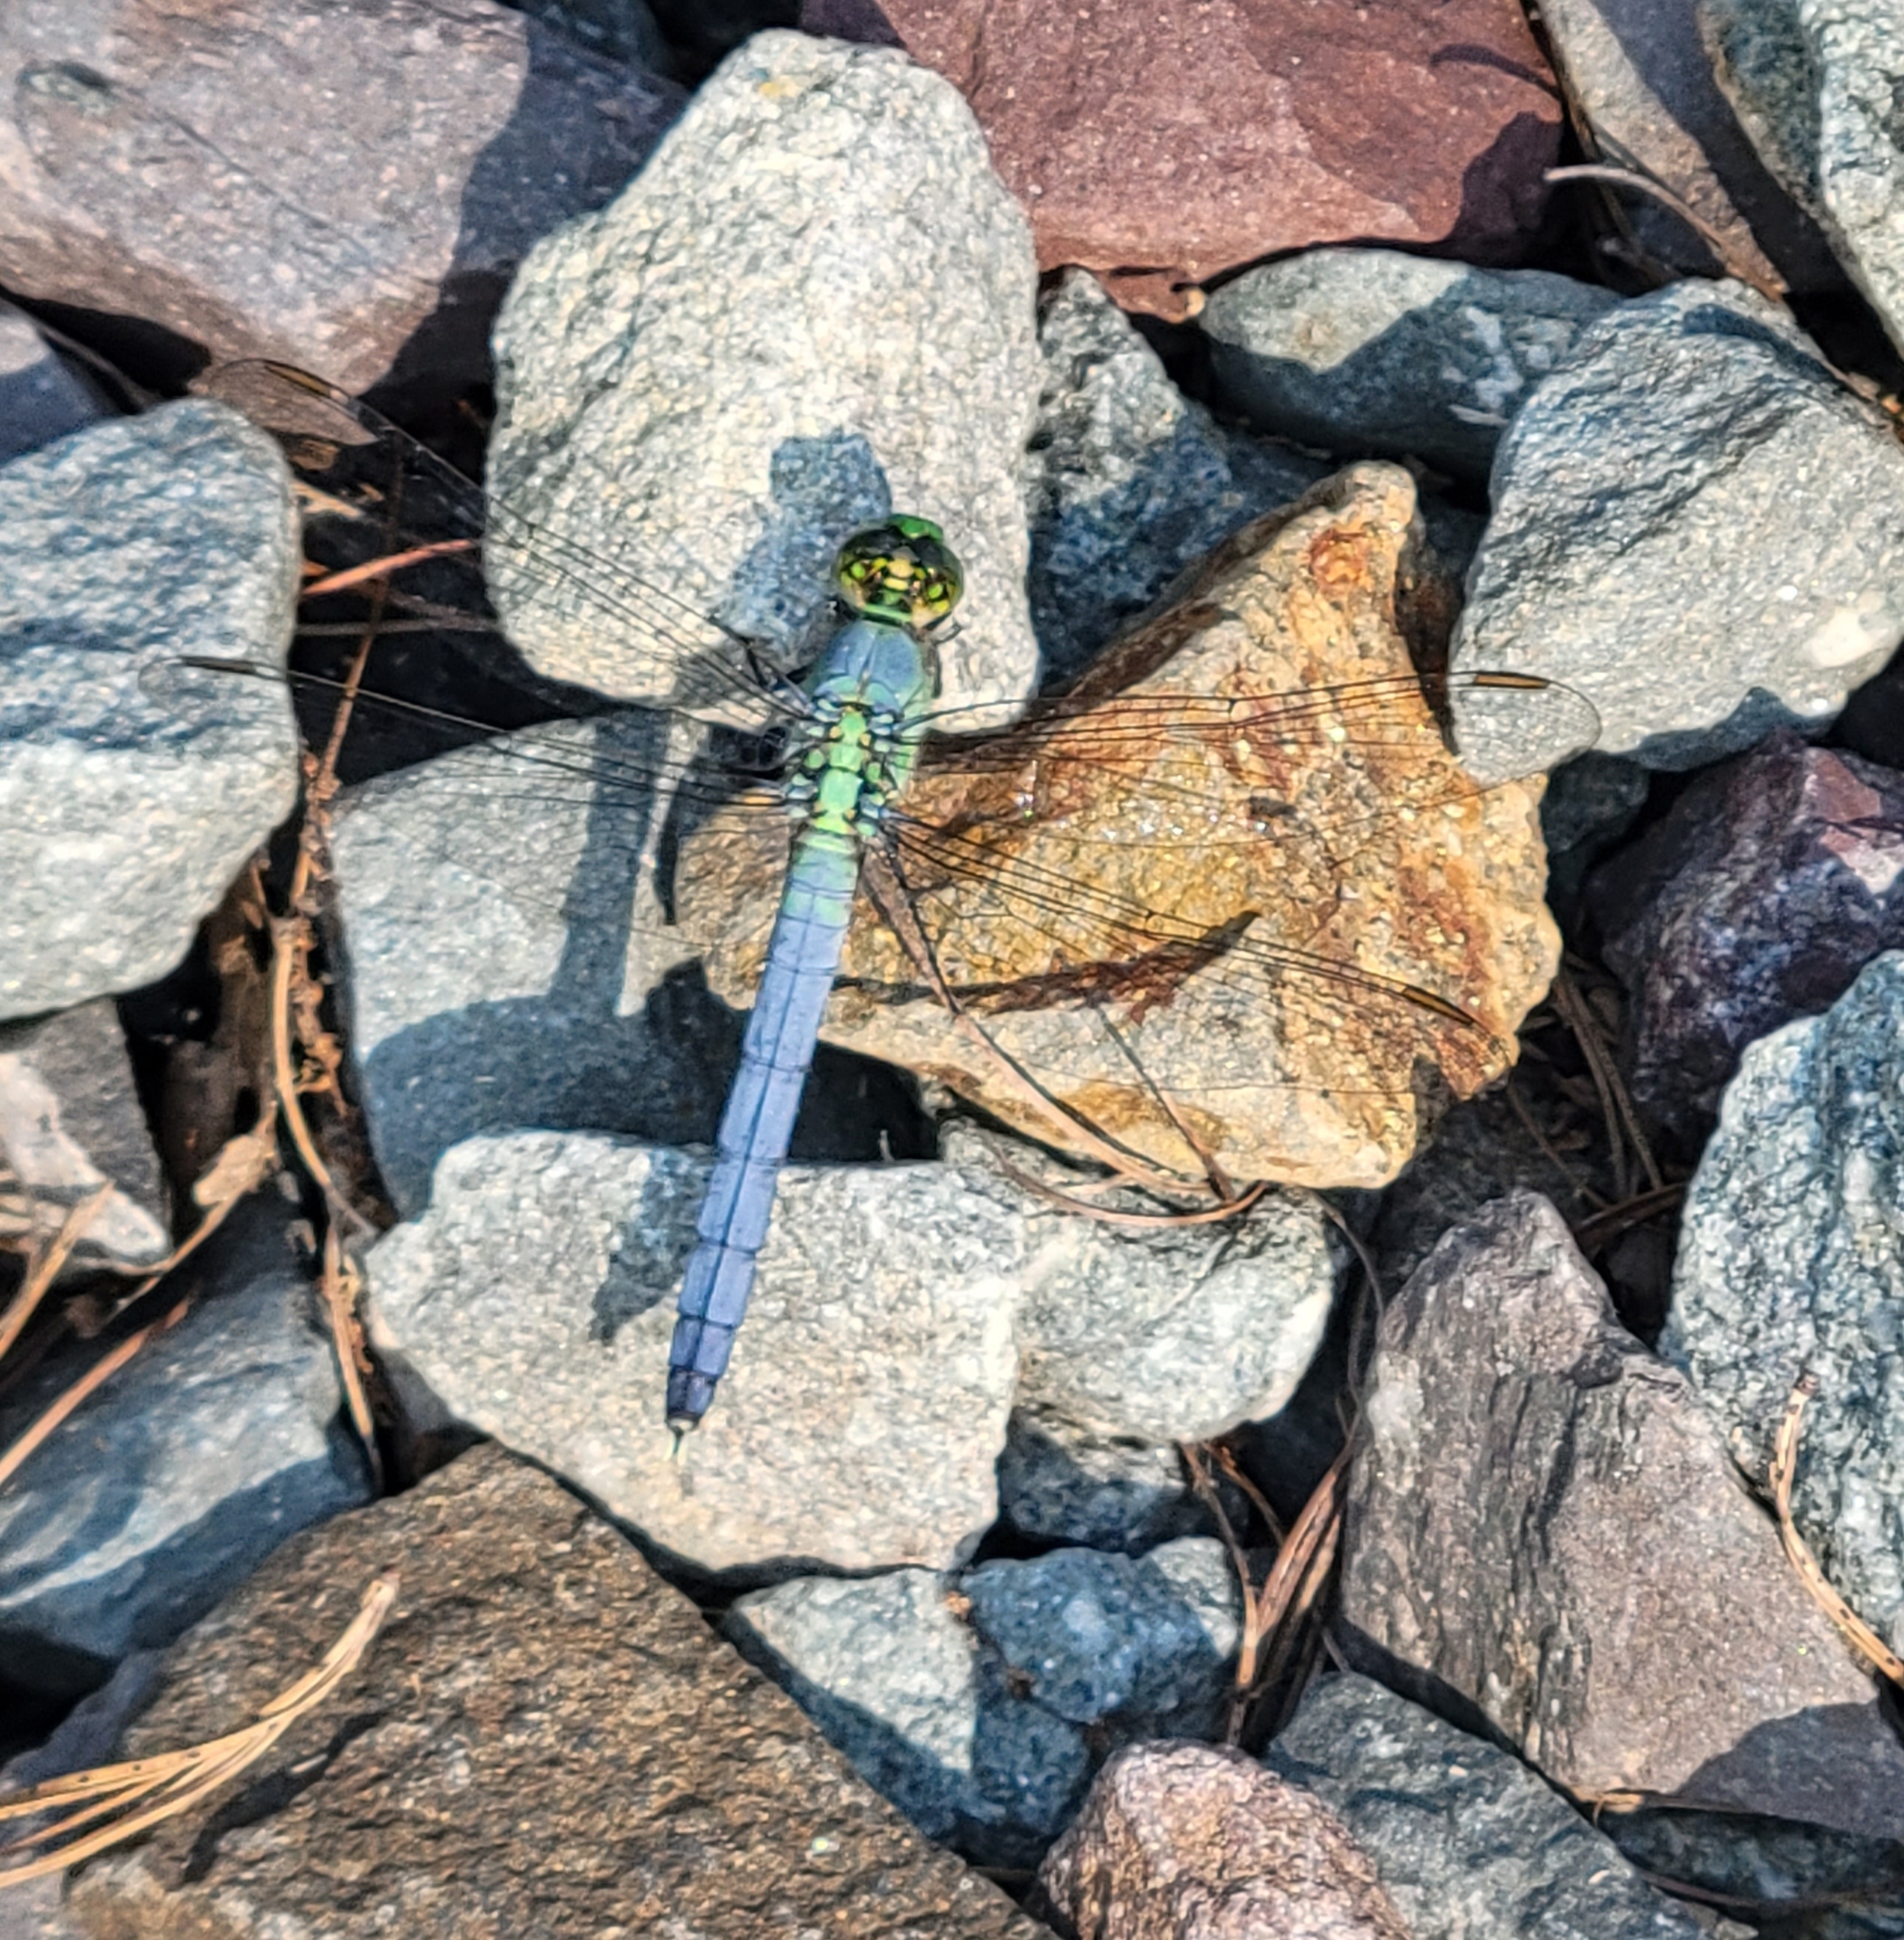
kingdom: Animalia
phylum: Arthropoda
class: Insecta
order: Odonata
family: Libellulidae
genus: Erythemis
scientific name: Erythemis simplicicollis
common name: Eastern pondhawk
